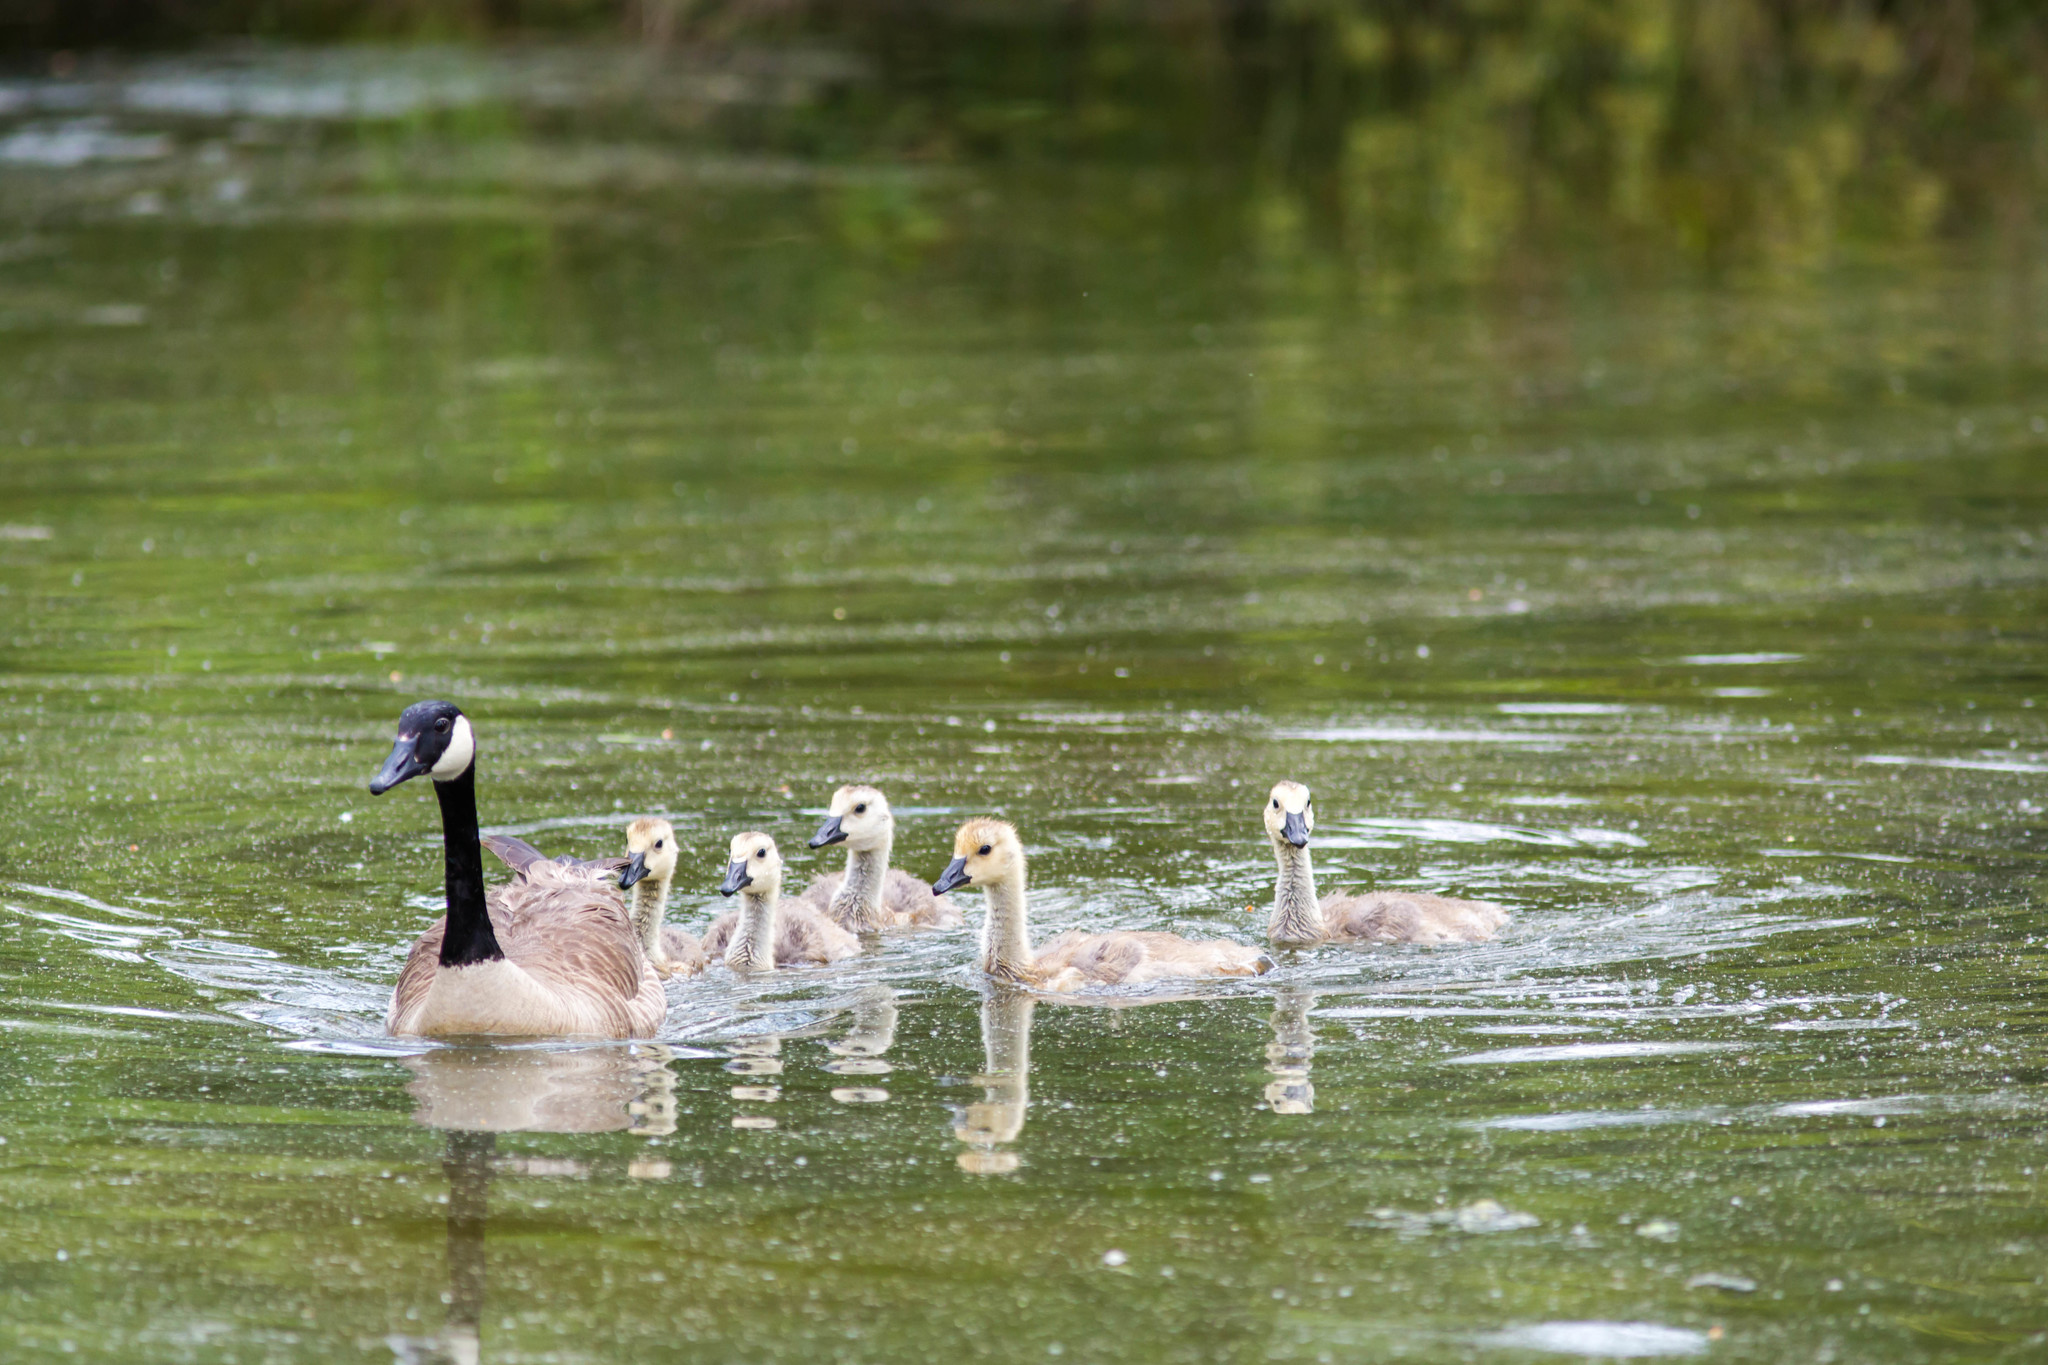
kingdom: Animalia
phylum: Chordata
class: Aves
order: Anseriformes
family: Anatidae
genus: Branta
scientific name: Branta canadensis
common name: Canada goose
